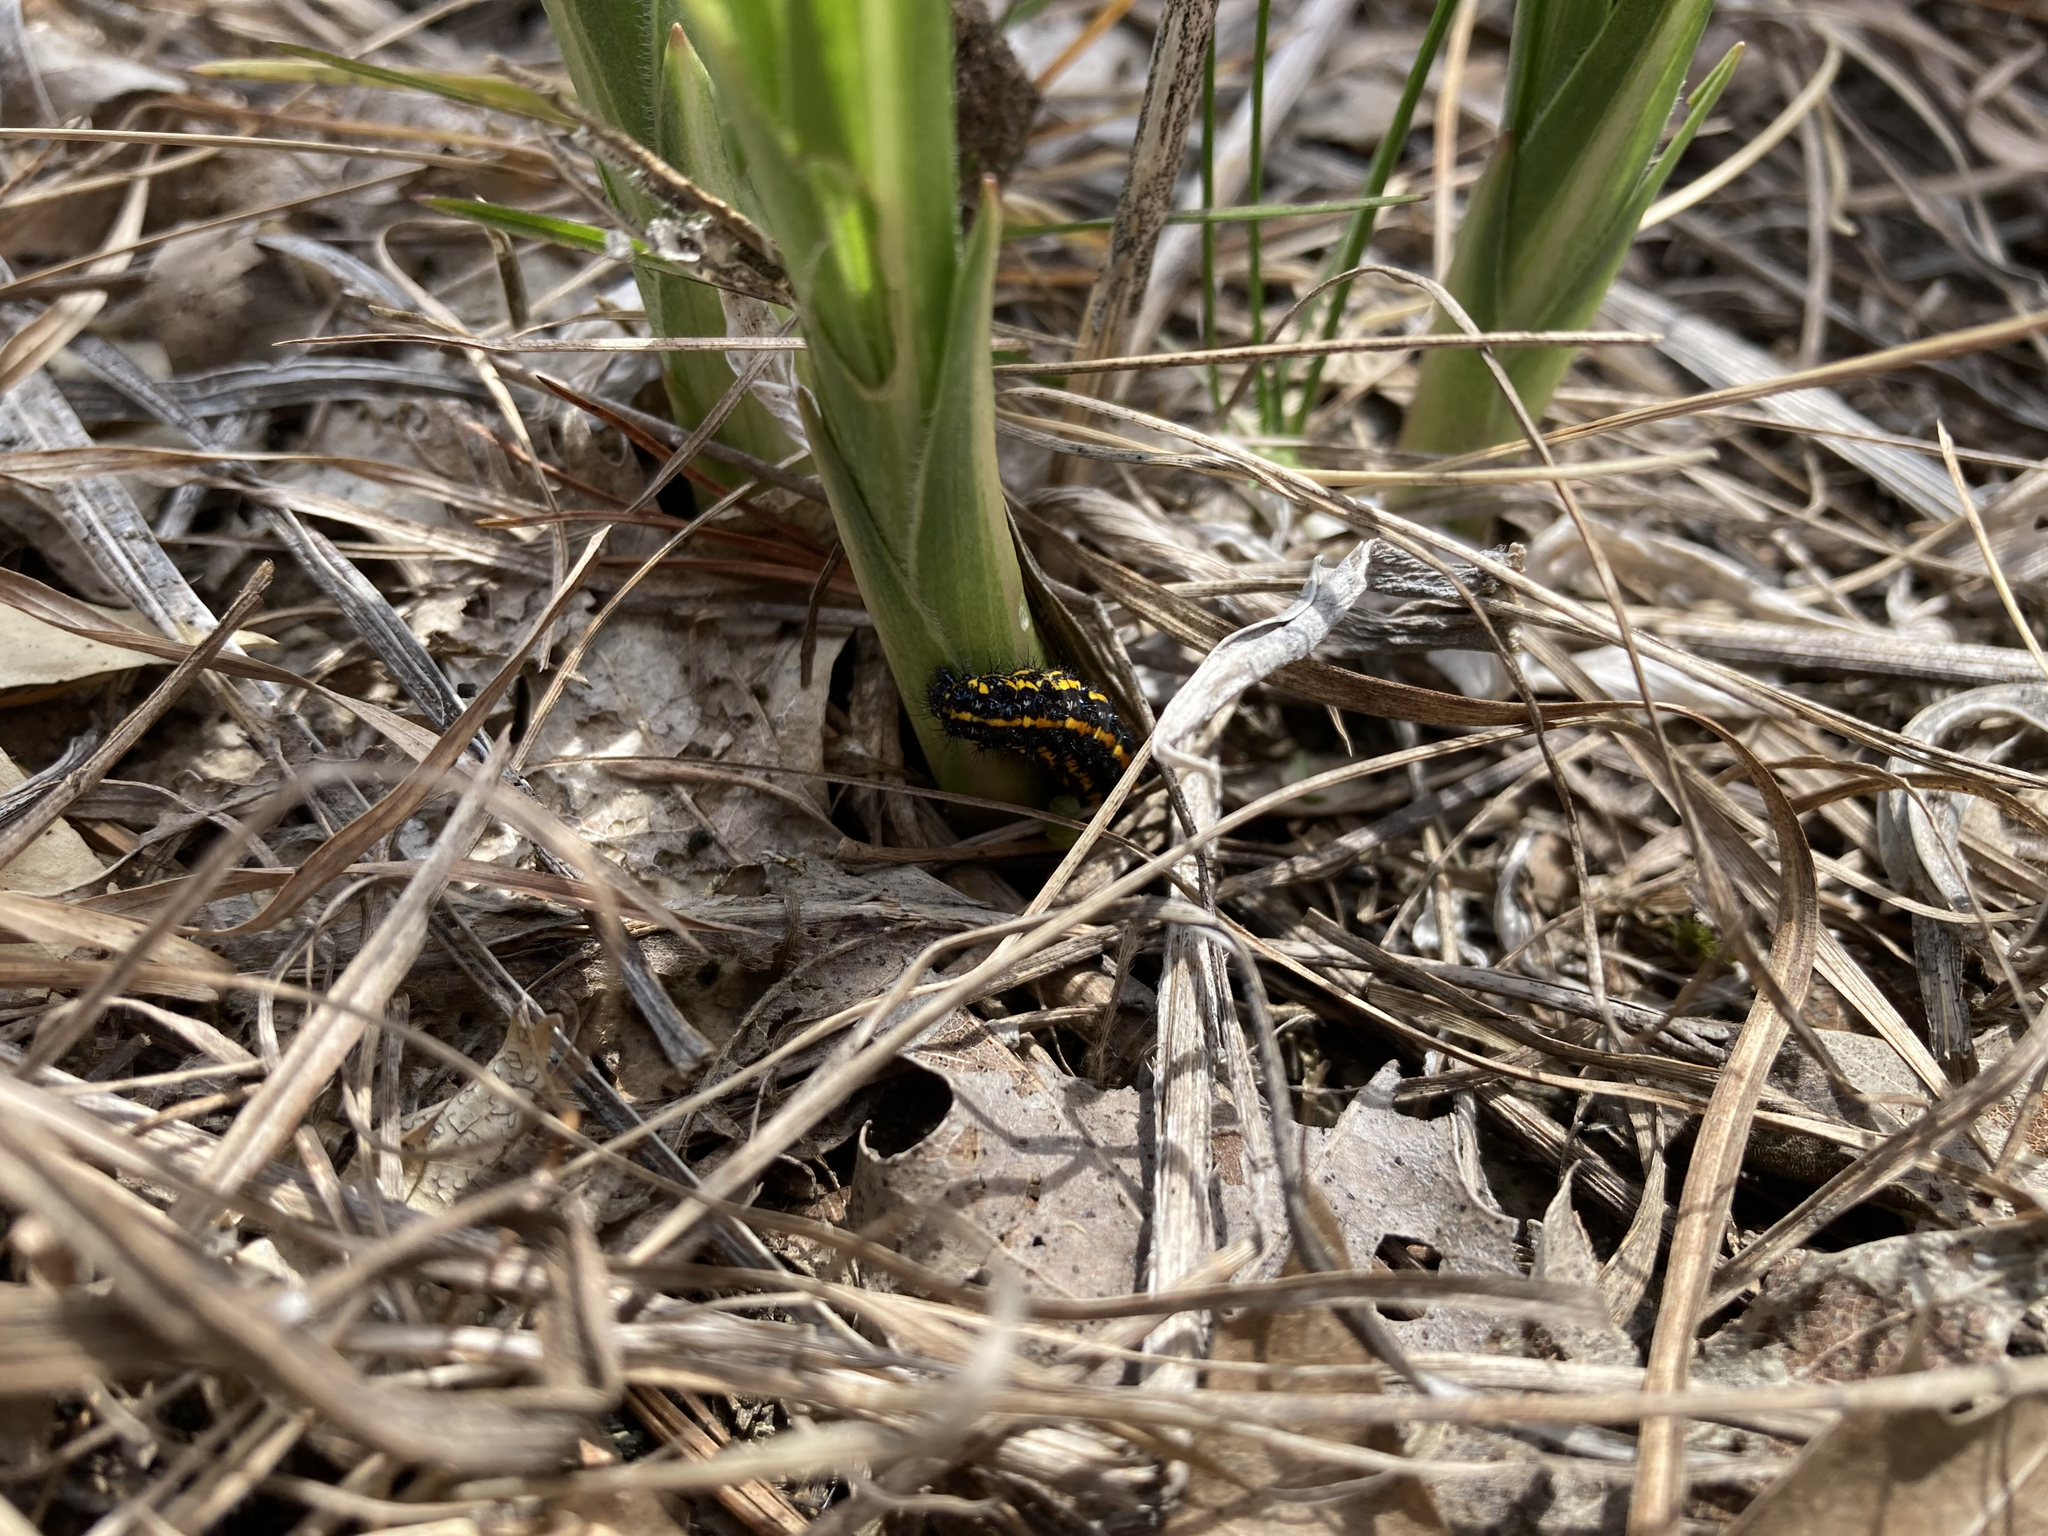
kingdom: Animalia
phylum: Arthropoda
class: Insecta
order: Lepidoptera
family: Erebidae
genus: Haploa
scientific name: Haploa reversa
